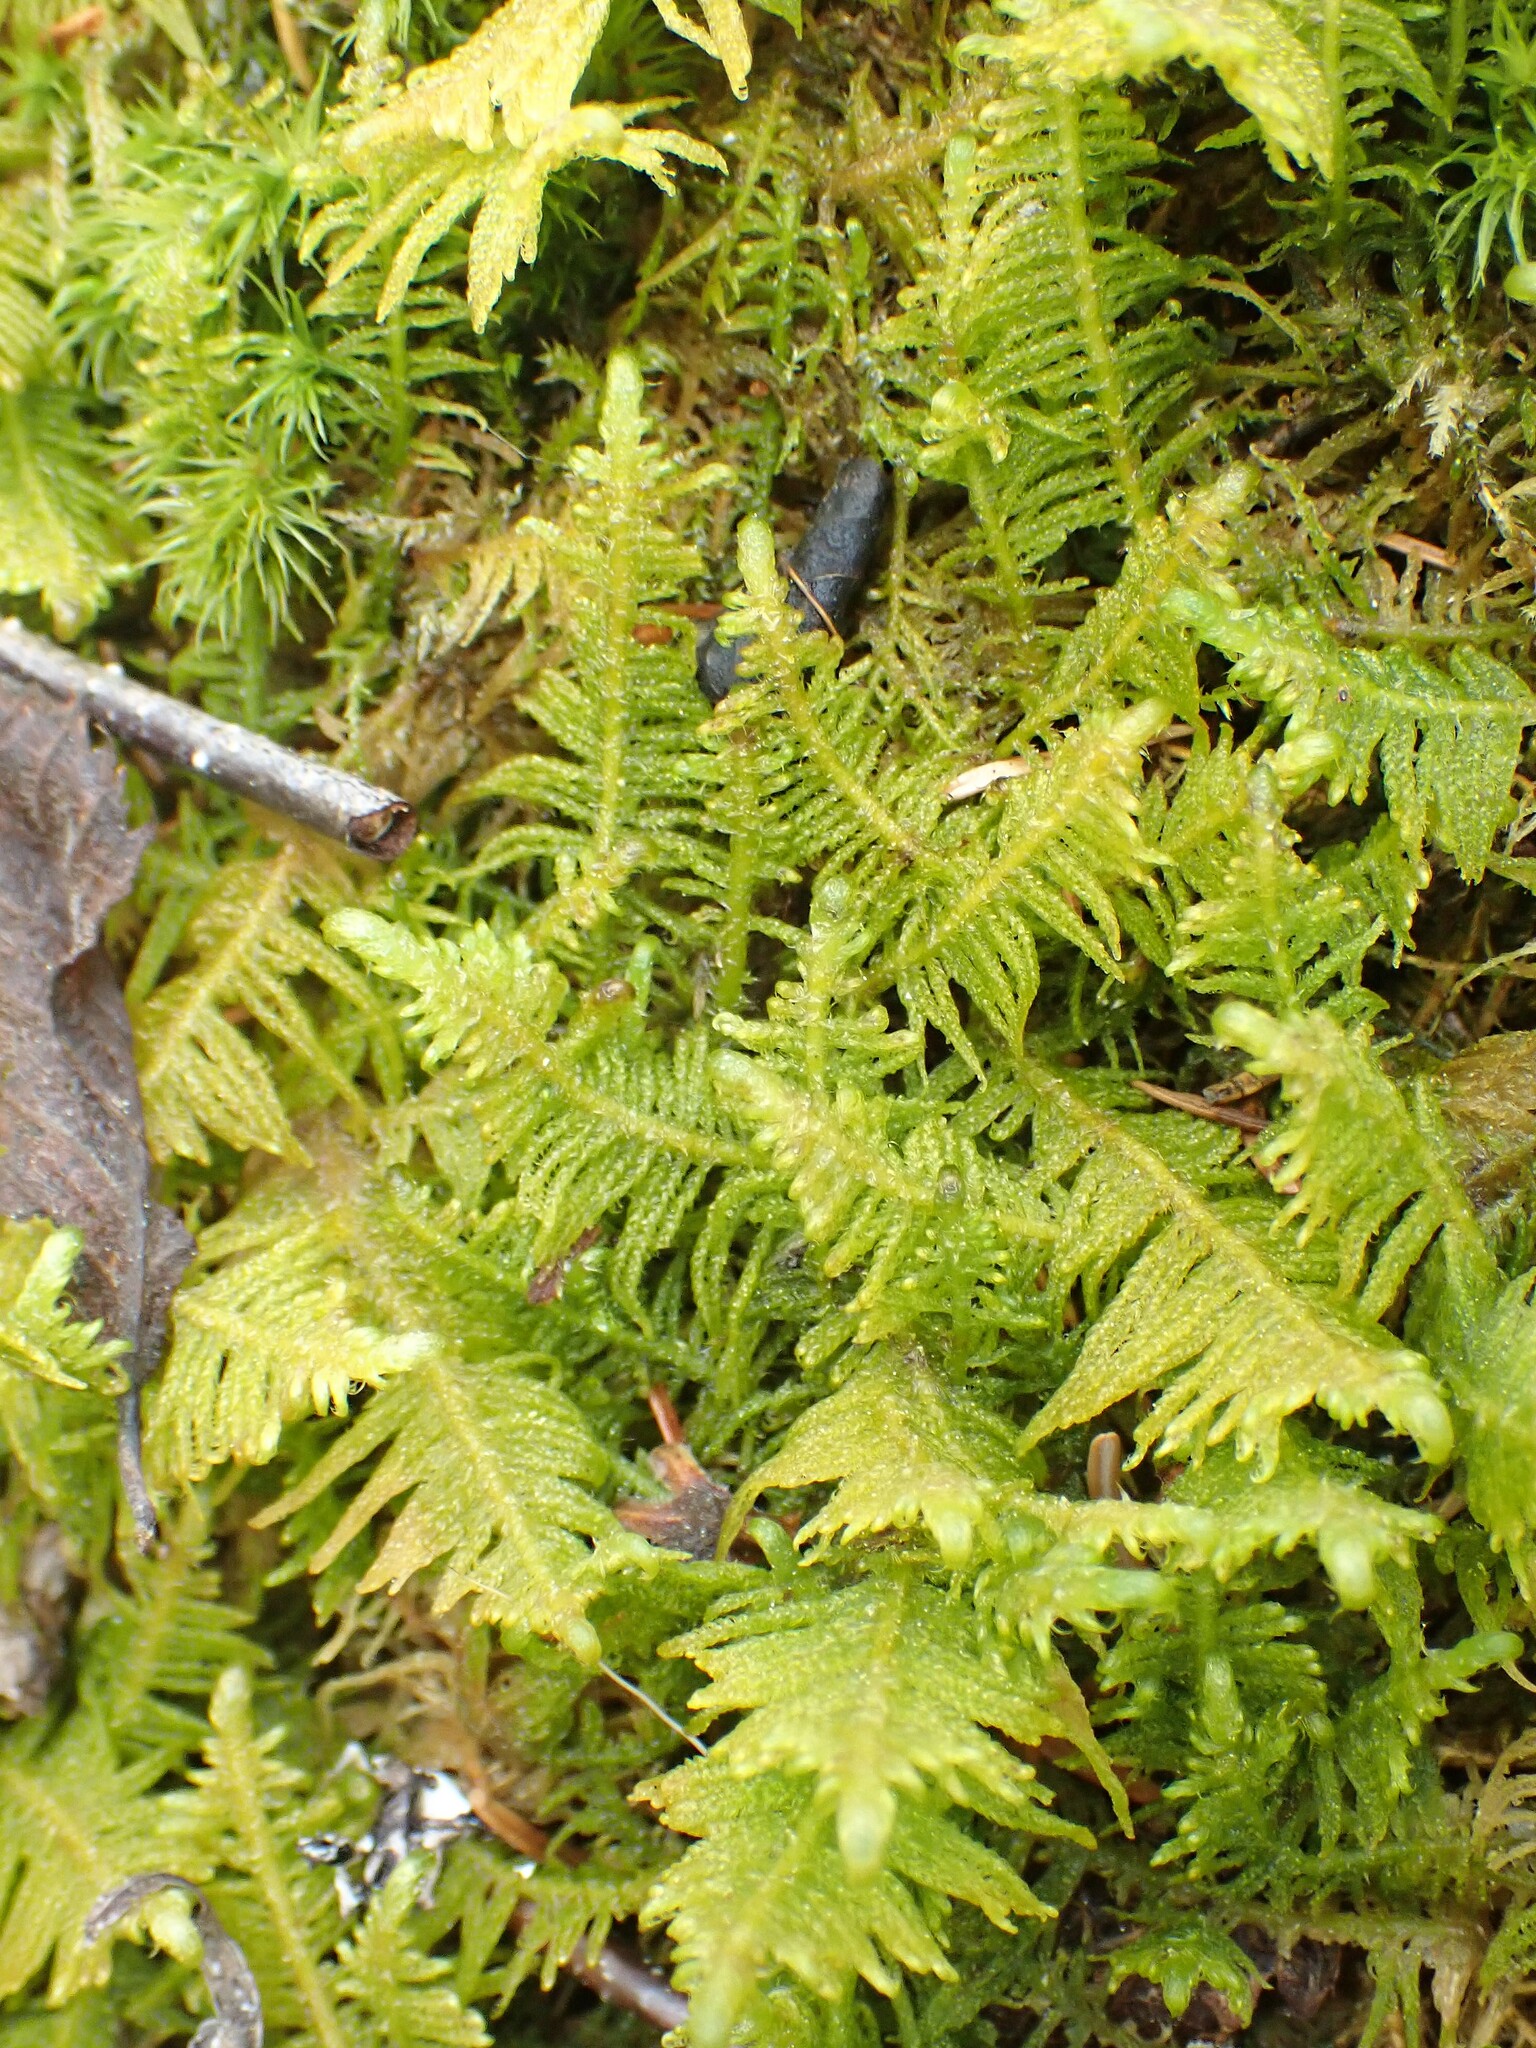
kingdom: Plantae
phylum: Bryophyta
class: Bryopsida
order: Hypnales
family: Pylaisiaceae
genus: Ptilium
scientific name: Ptilium crista-castrensis
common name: Knight's plume moss
